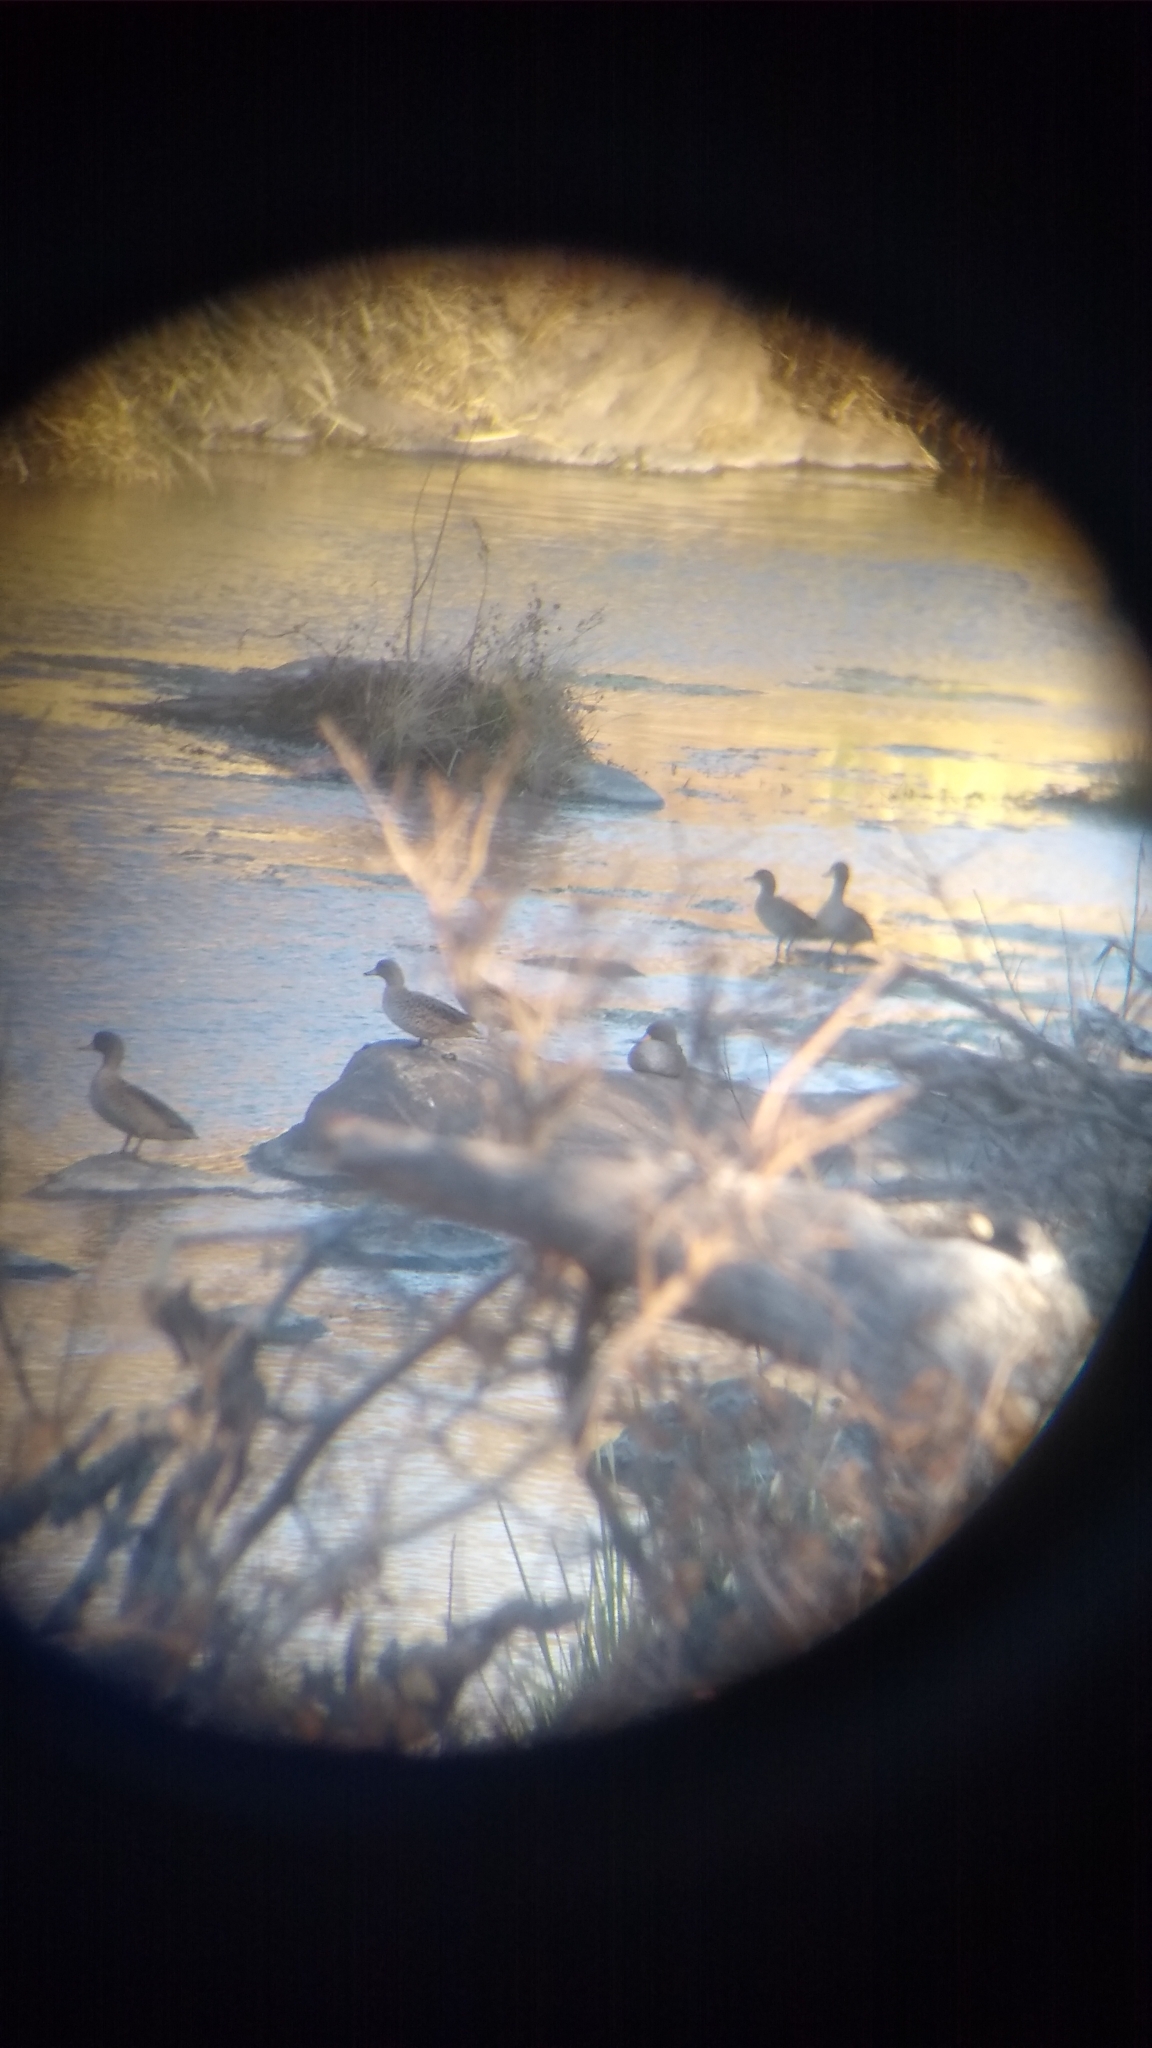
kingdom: Animalia
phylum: Chordata
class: Aves
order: Anseriformes
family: Anatidae
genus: Anas
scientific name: Anas flavirostris
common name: Yellow-billed teal
